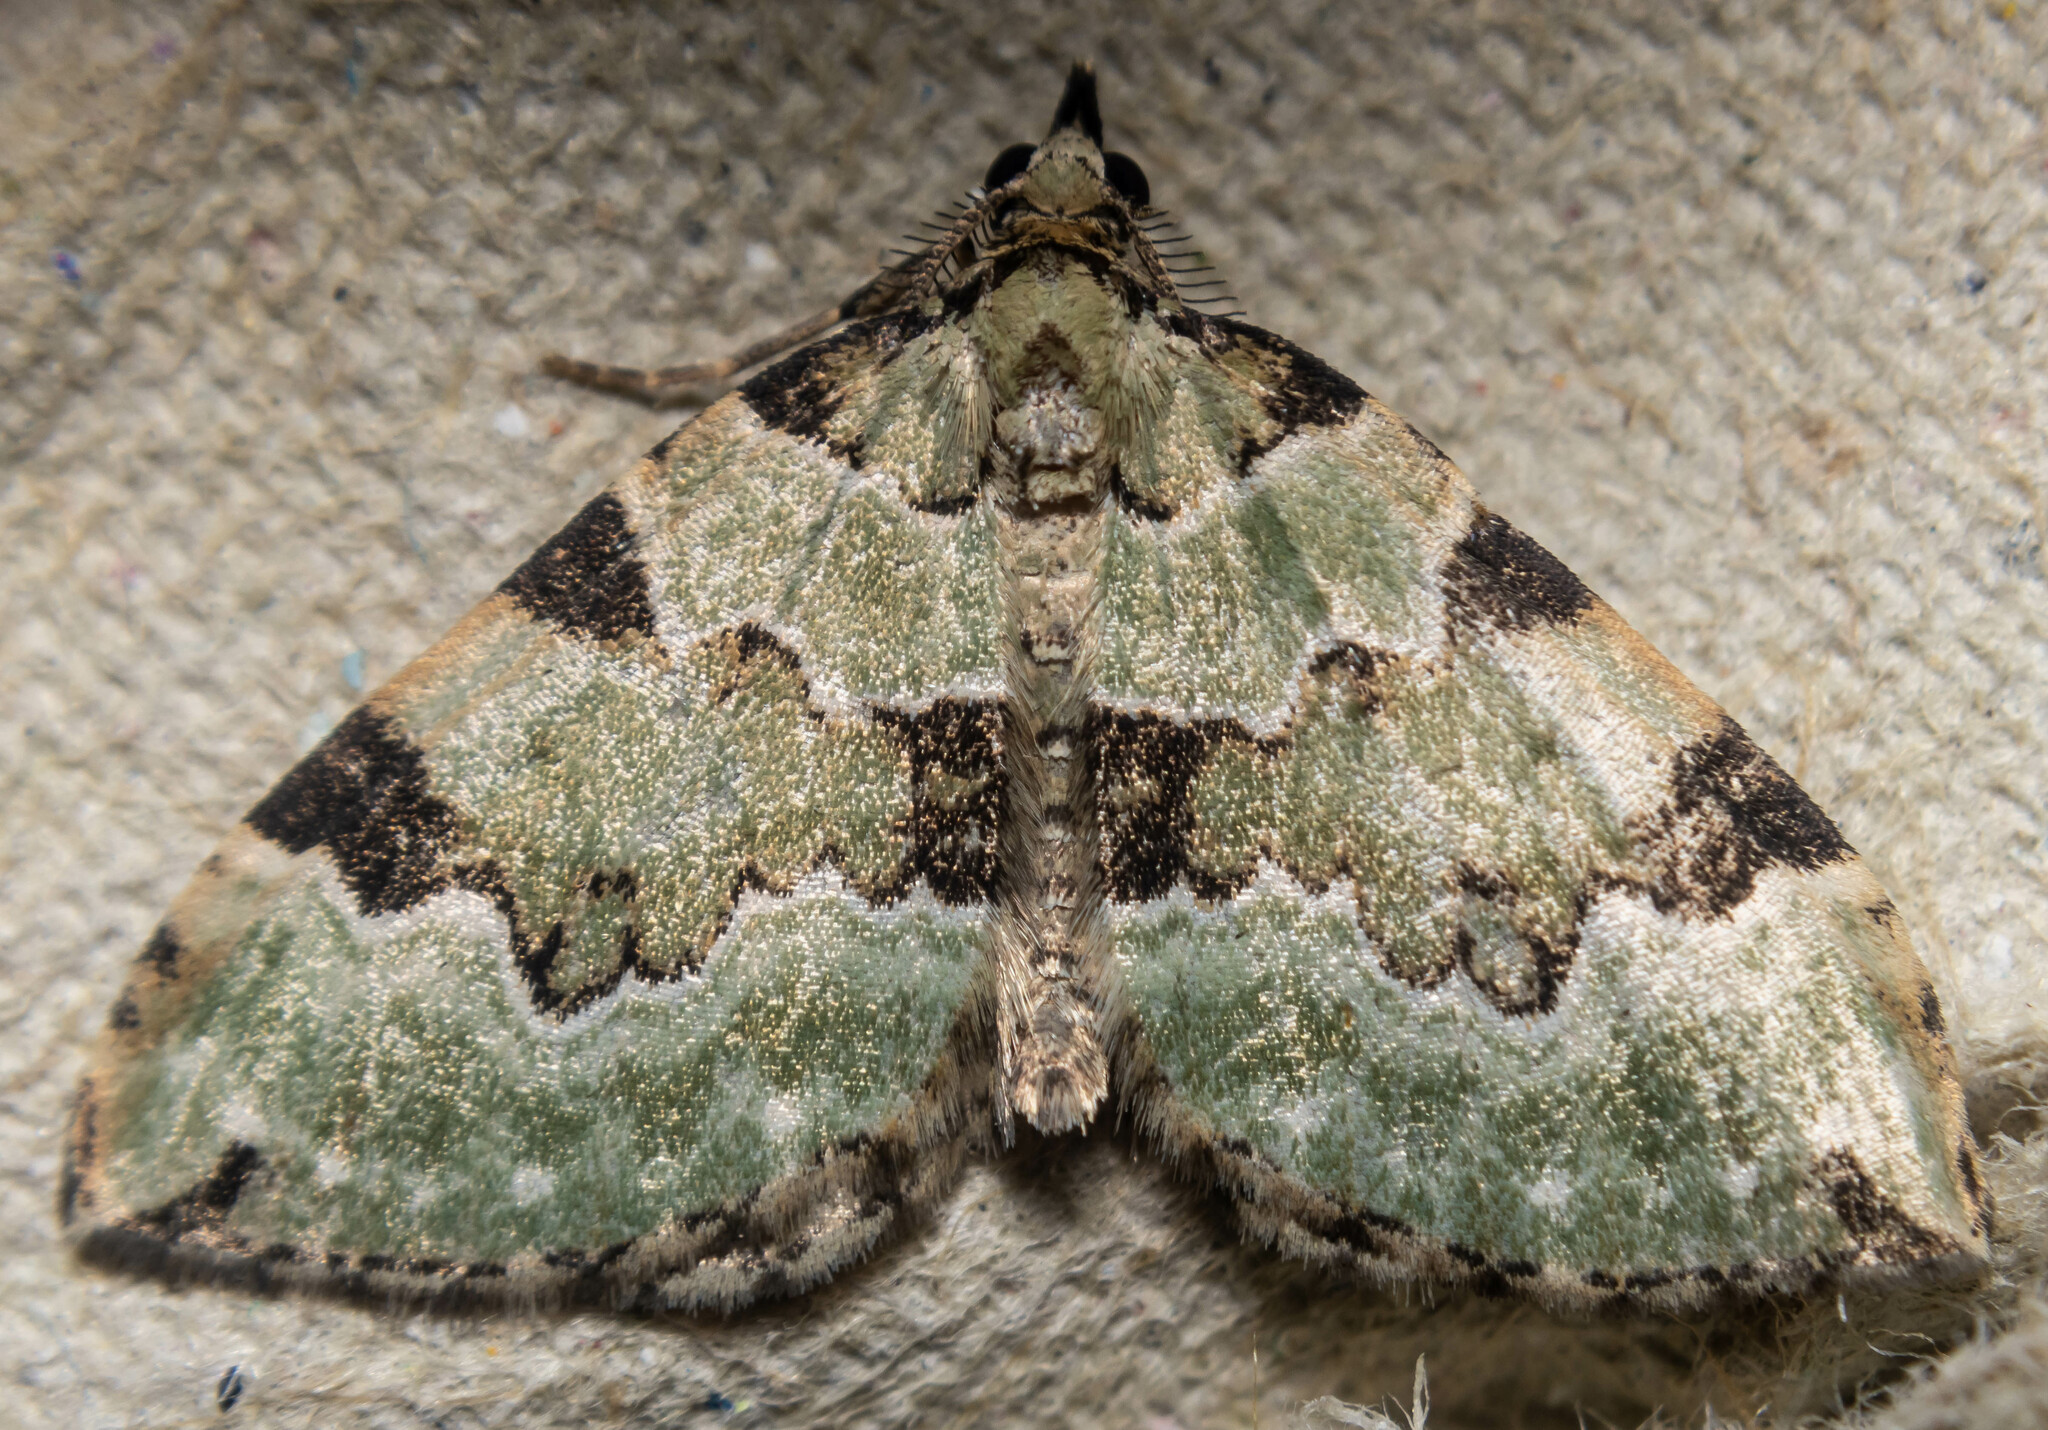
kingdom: Animalia
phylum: Arthropoda
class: Insecta
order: Lepidoptera
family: Geometridae
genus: Colostygia
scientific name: Colostygia pectinataria
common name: Green carpet
